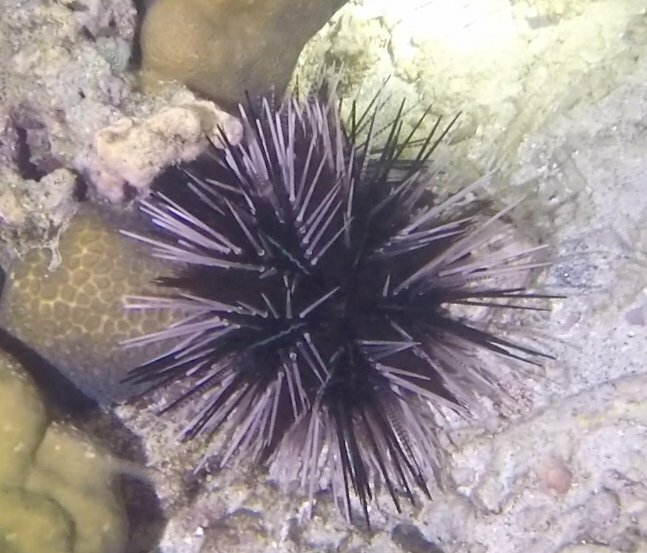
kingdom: Animalia
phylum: Echinodermata
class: Echinoidea
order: Diadematoida
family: Diadematidae
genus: Echinothrix
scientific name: Echinothrix calamaris
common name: Banded sea urchin
